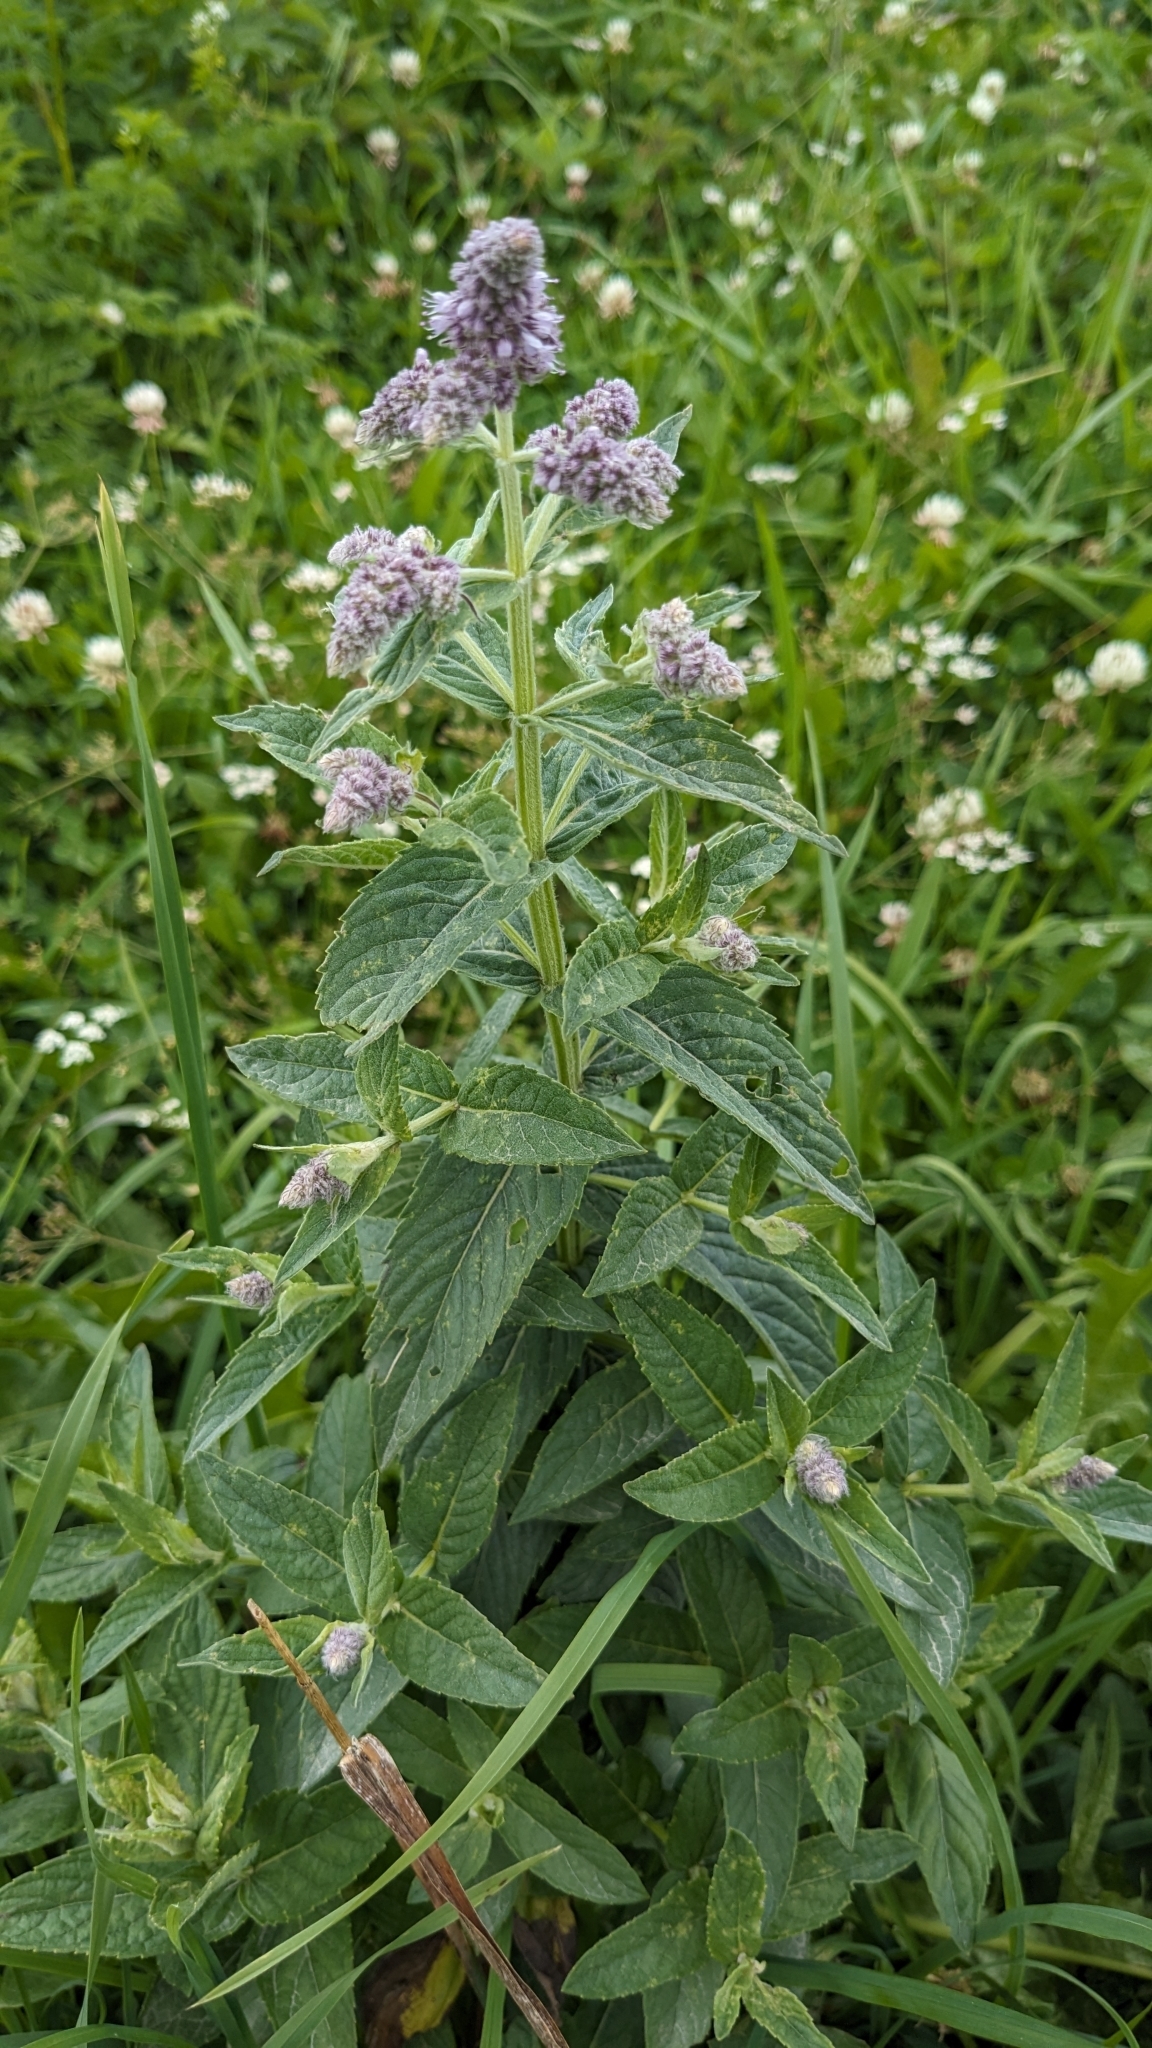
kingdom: Plantae
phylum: Tracheophyta
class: Magnoliopsida
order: Lamiales
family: Lamiaceae
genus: Mentha
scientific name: Mentha longifolia
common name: Horse mint
